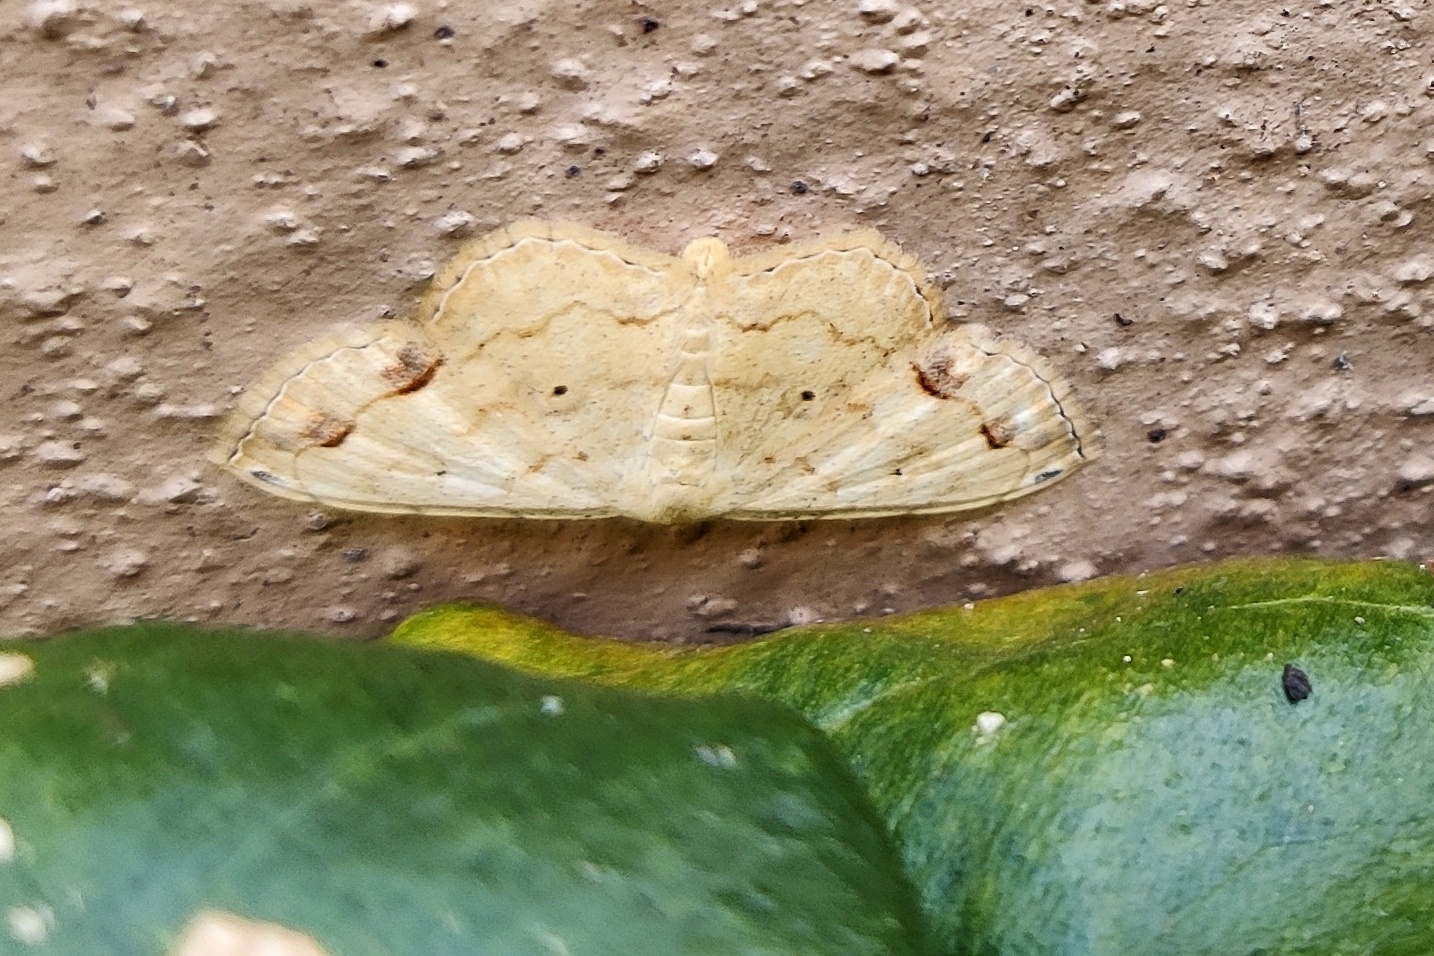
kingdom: Animalia
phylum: Arthropoda
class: Insecta
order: Lepidoptera
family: Geometridae
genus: Scopula
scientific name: Scopula addictaria
